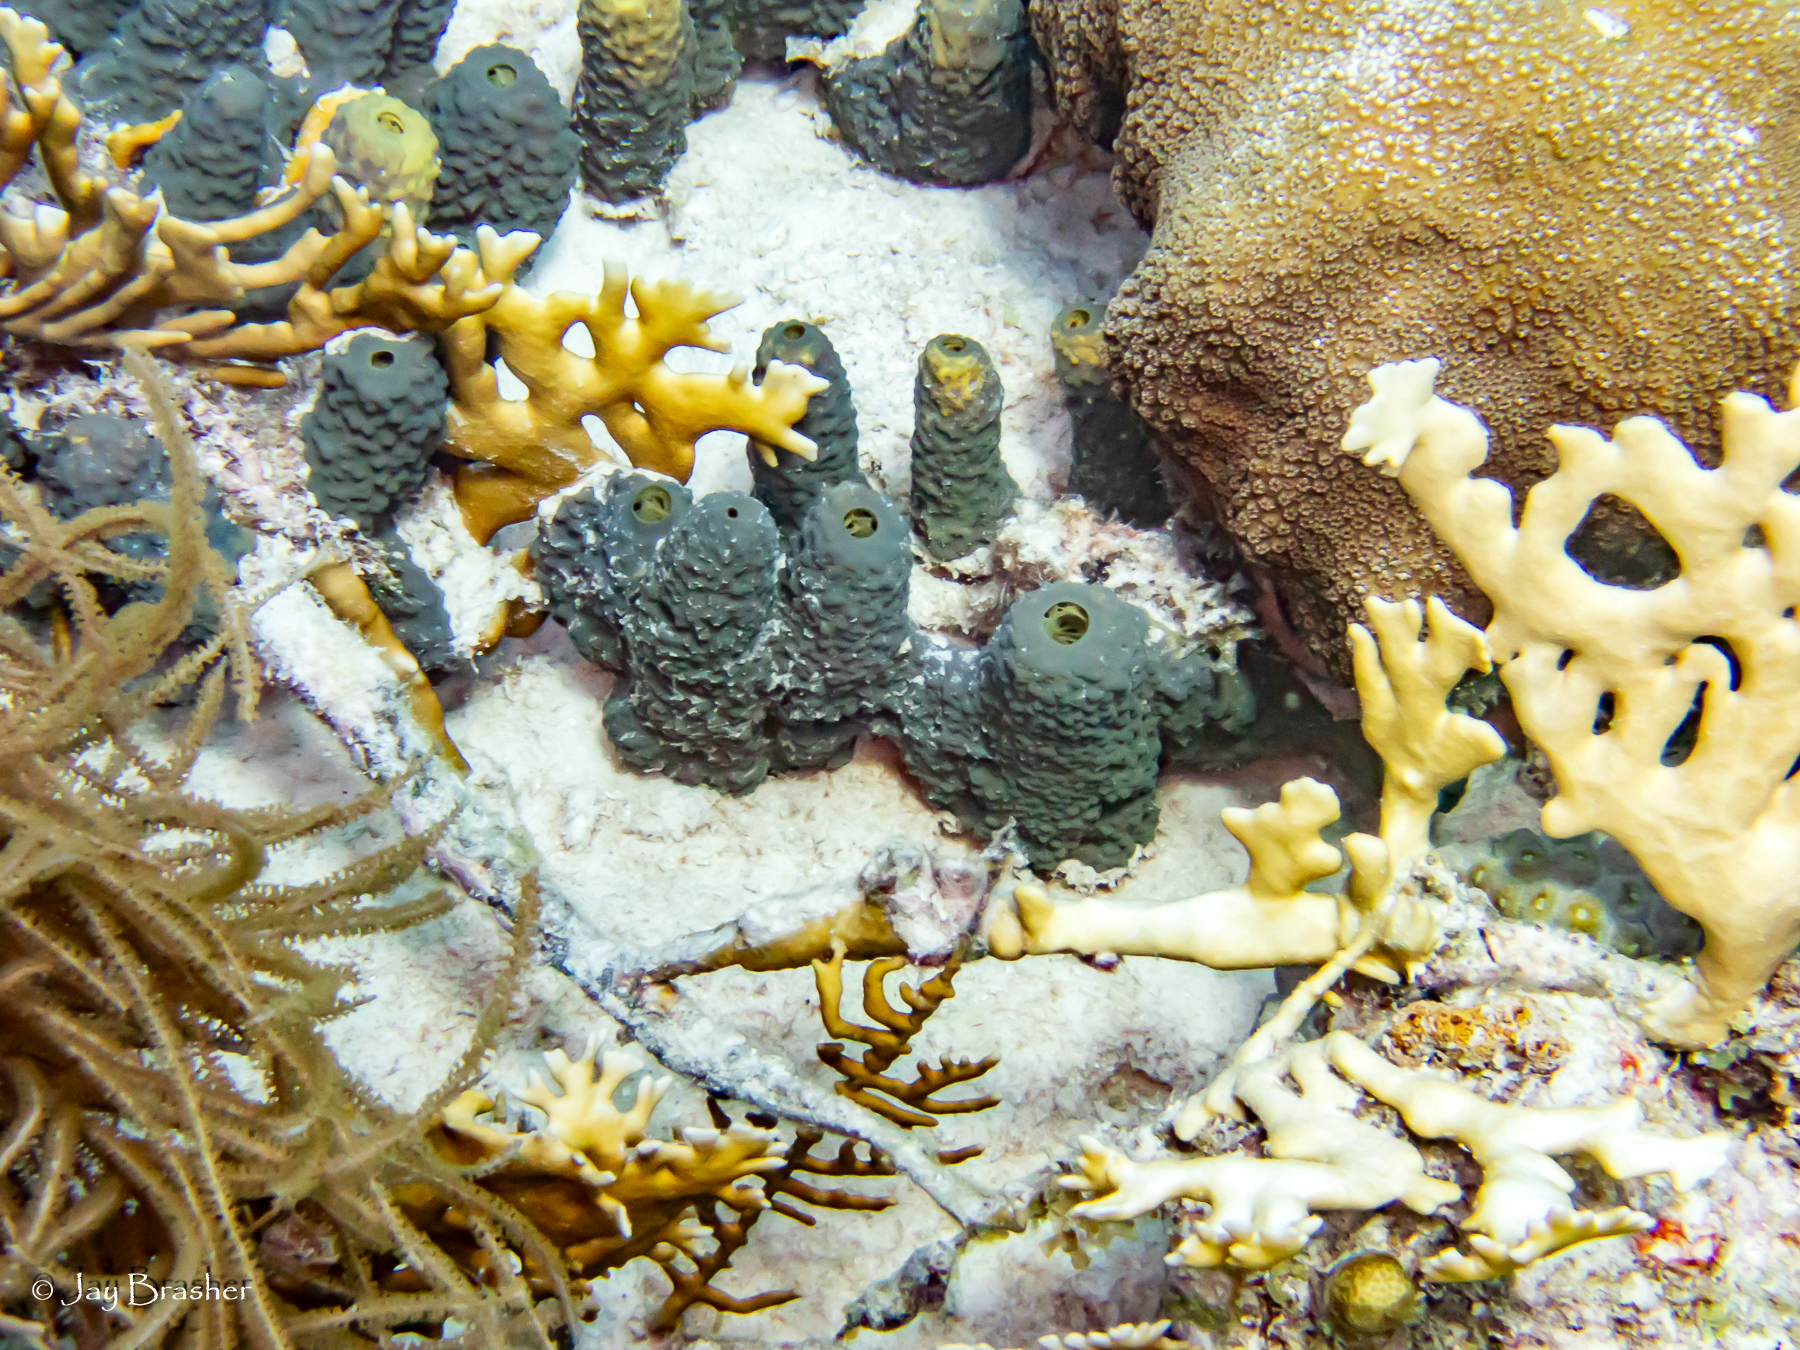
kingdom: Animalia
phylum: Cnidaria
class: Hydrozoa
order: Anthoathecata
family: Milleporidae
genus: Millepora
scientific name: Millepora alcicornis
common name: Branching fire coral
